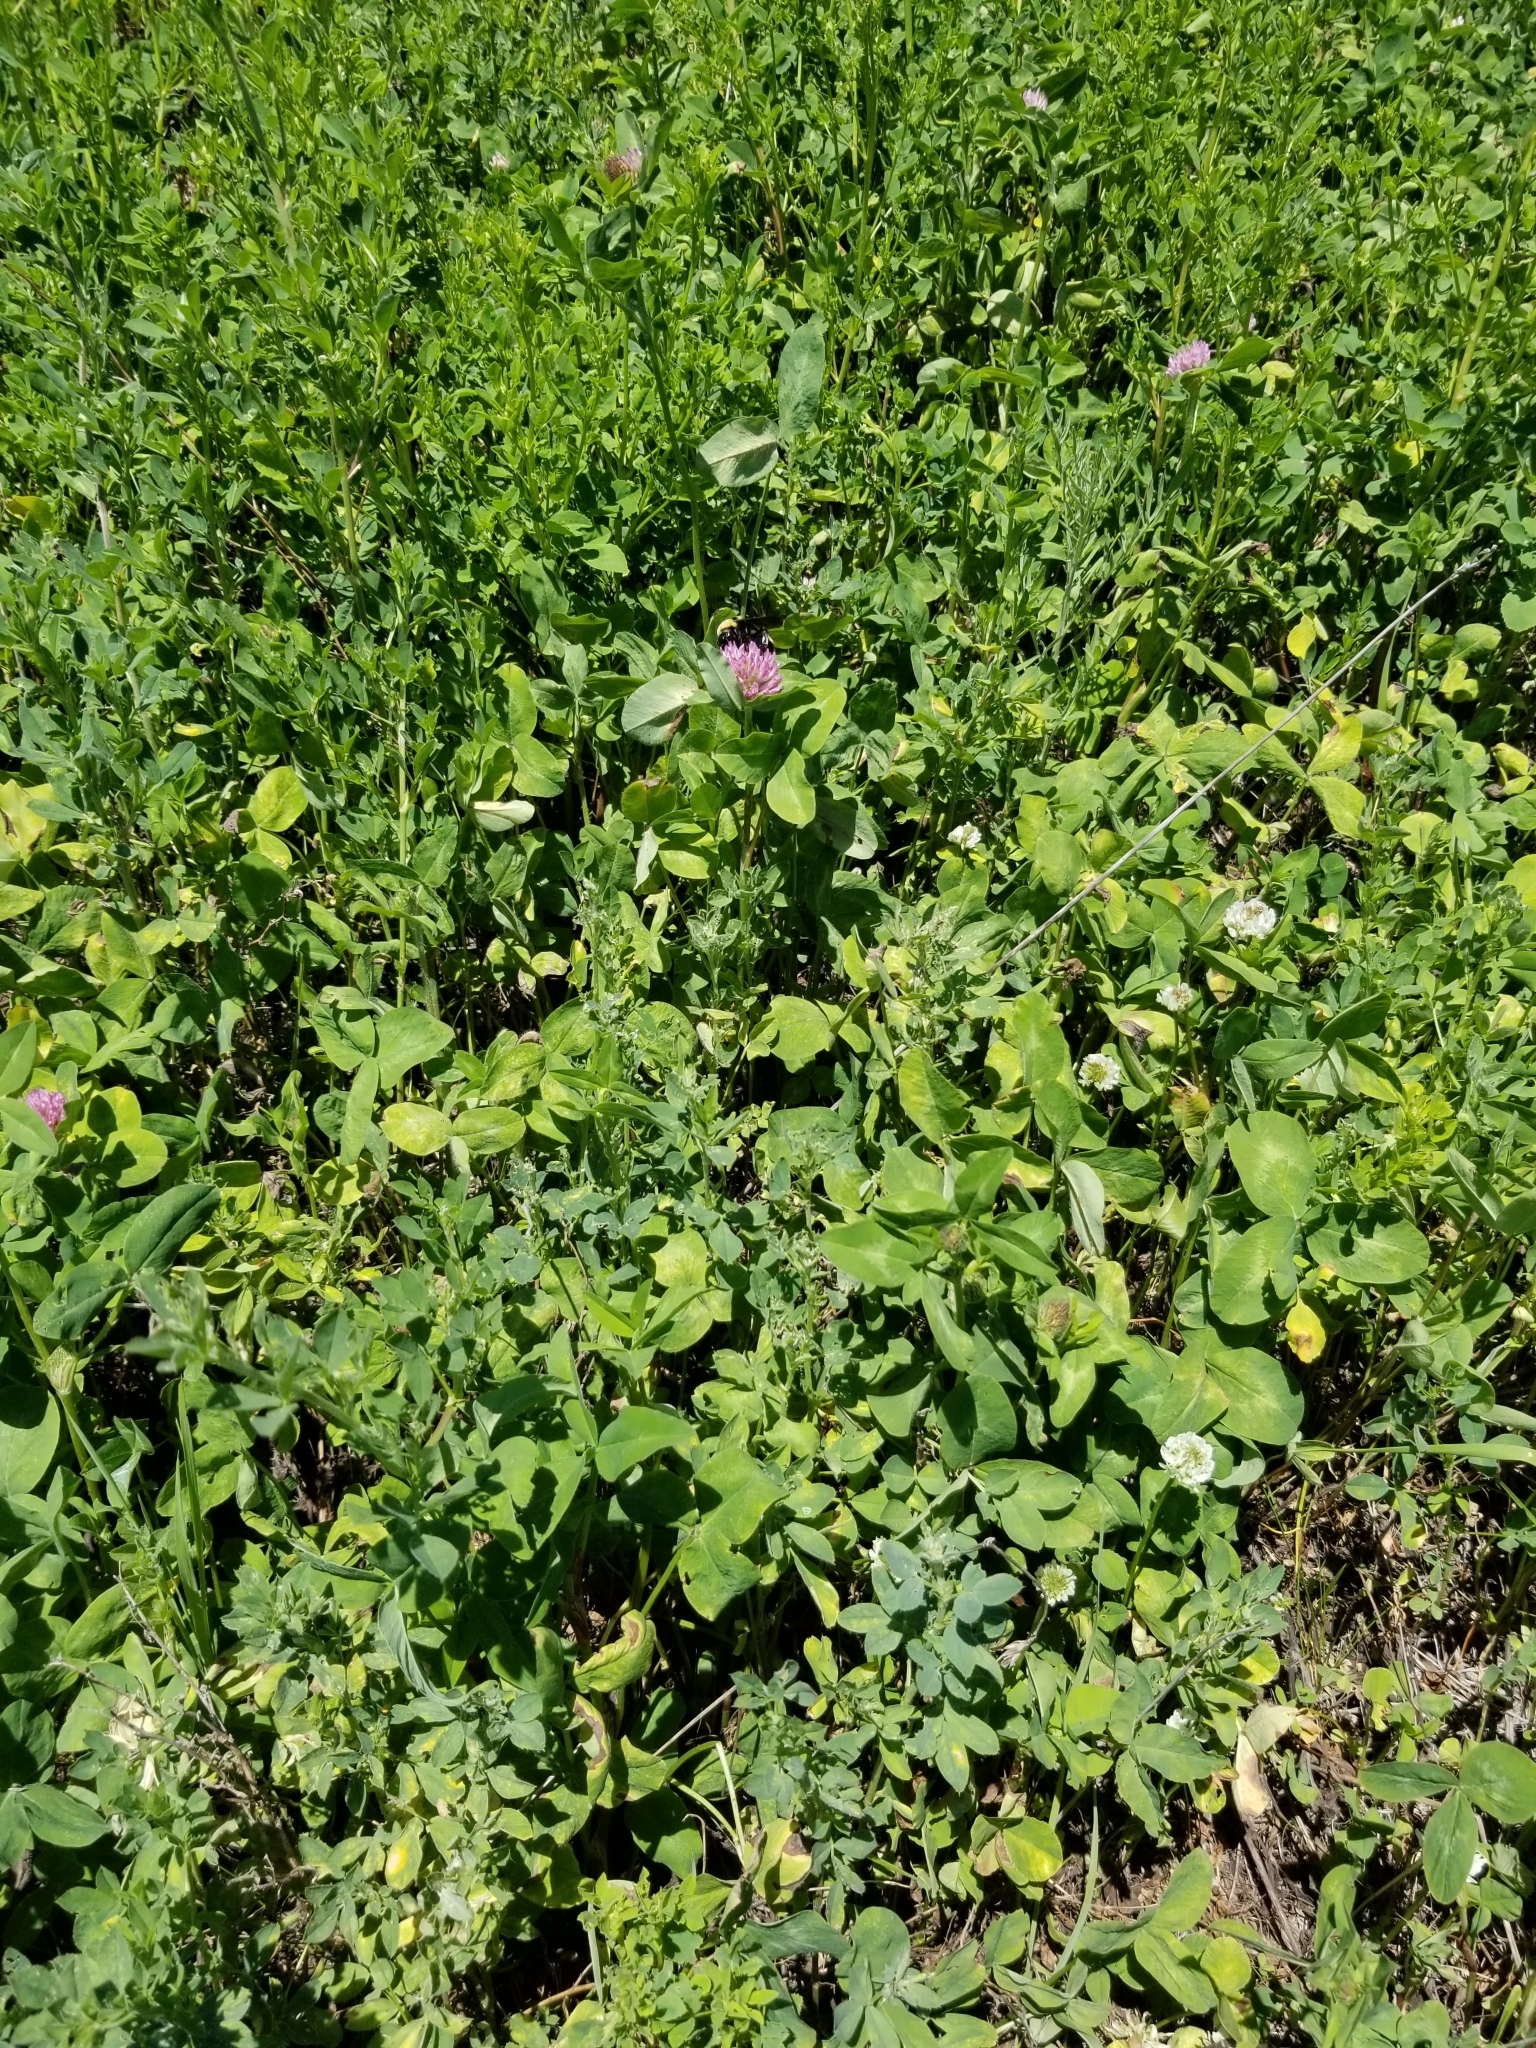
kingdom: Animalia
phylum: Arthropoda
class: Insecta
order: Hymenoptera
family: Apidae
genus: Bombus
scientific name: Bombus auricomus
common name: Black and gold bumble bee
